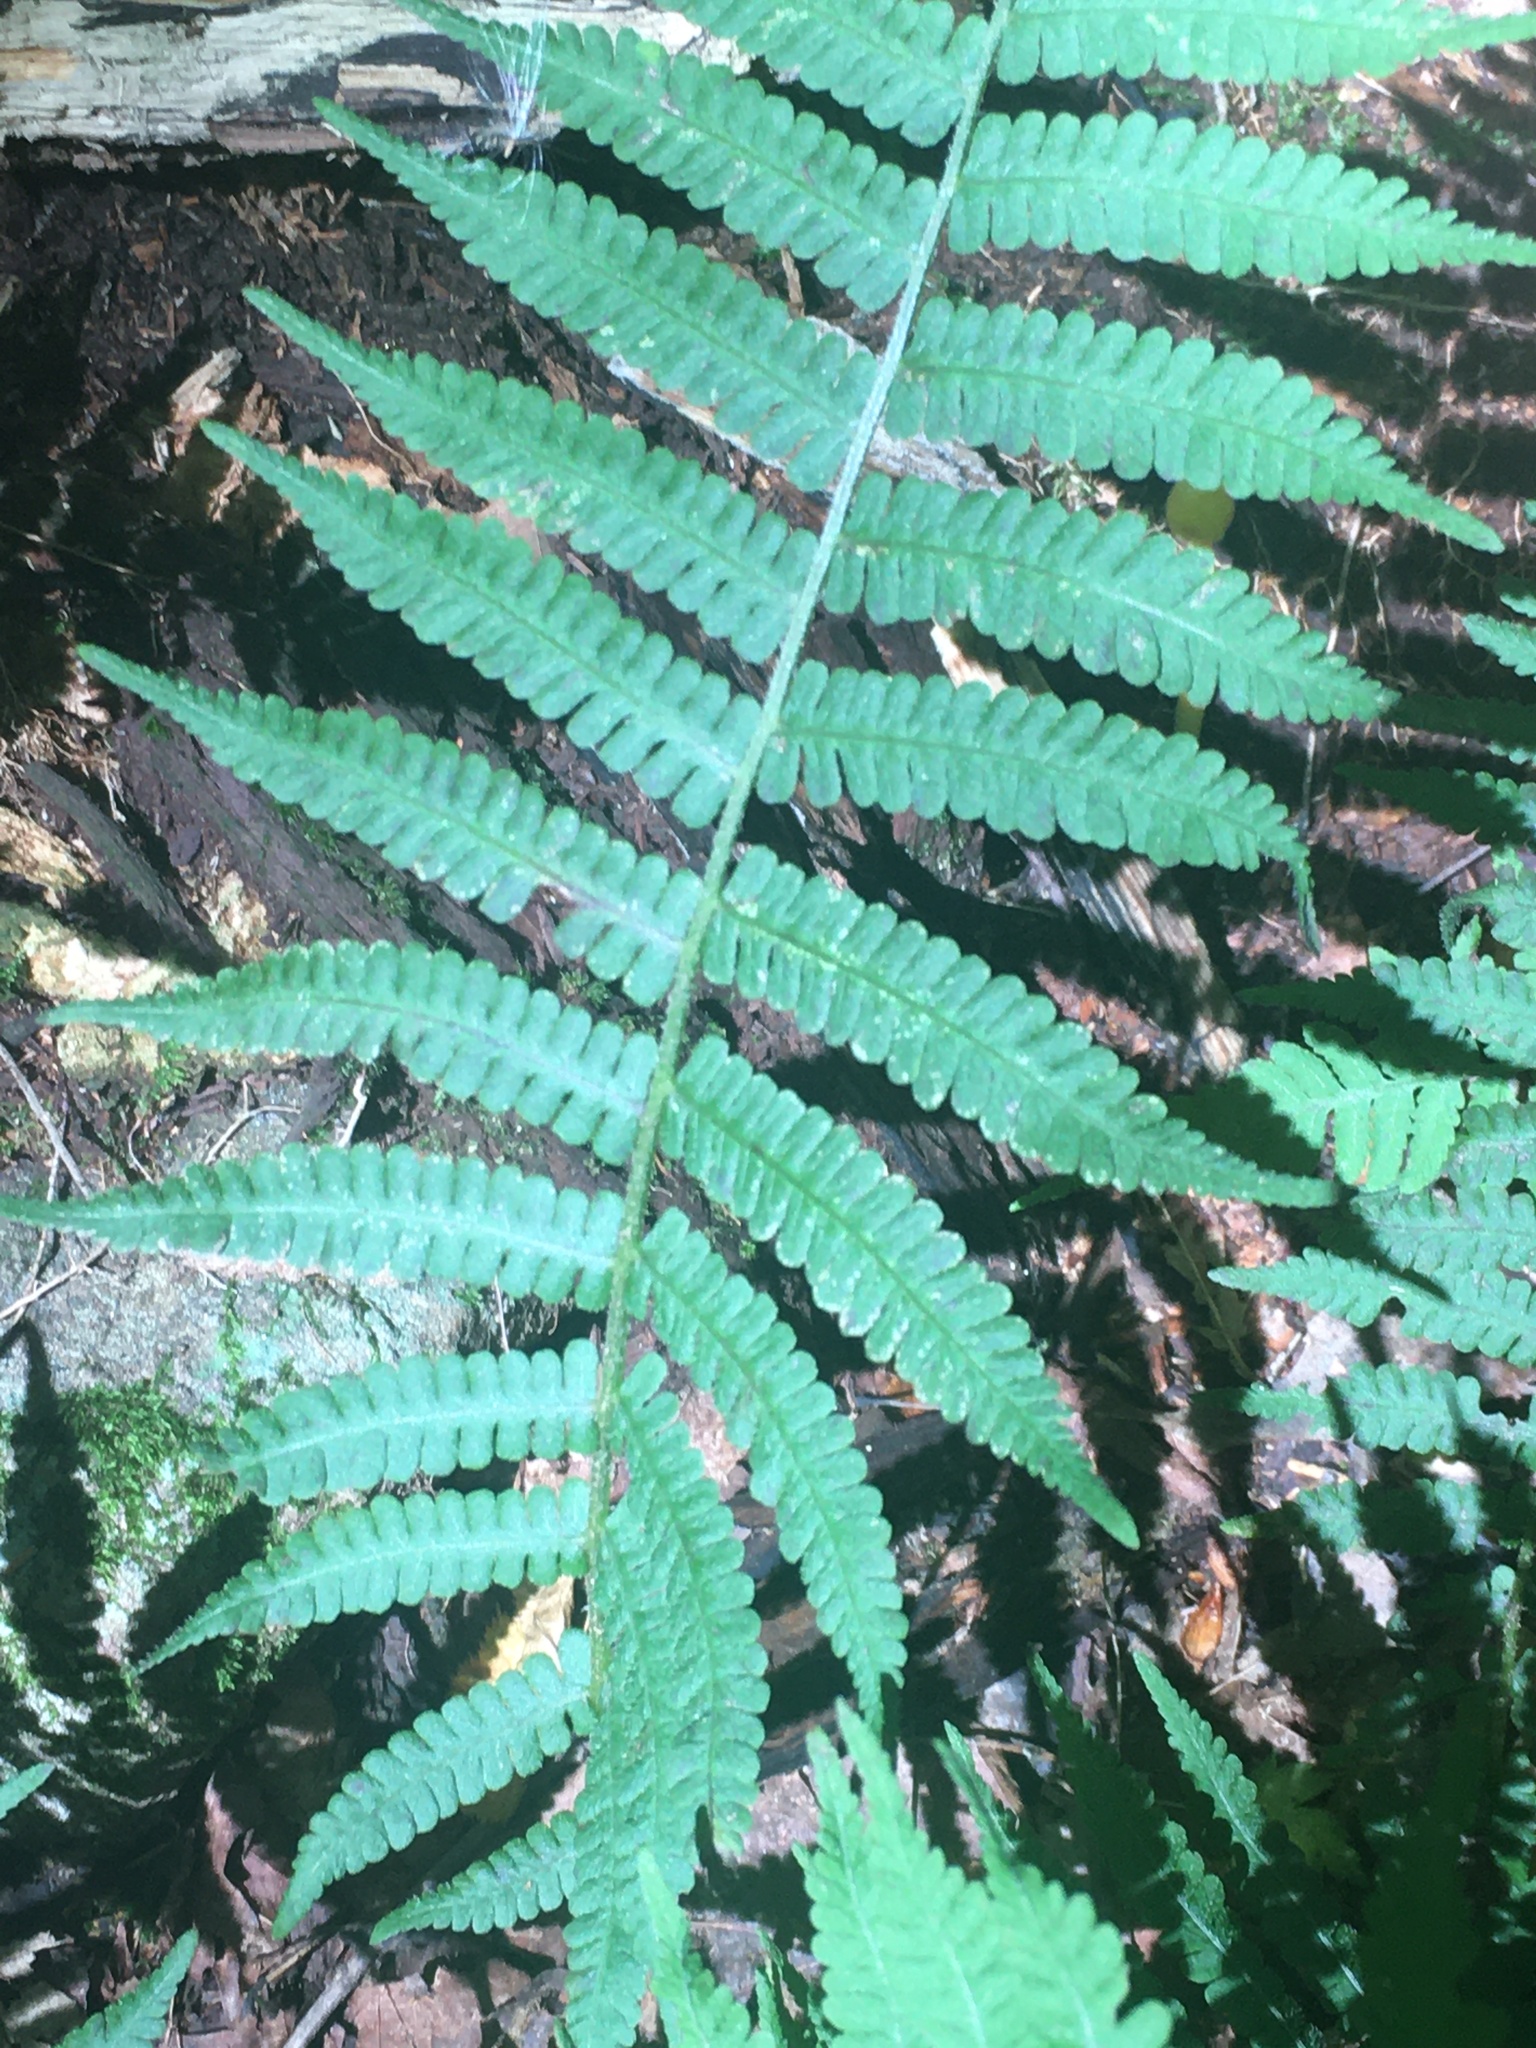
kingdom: Plantae
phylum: Tracheophyta
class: Polypodiopsida
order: Polypodiales
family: Athyriaceae
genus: Deparia
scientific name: Deparia acrostichoides
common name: Silver false spleenwort
